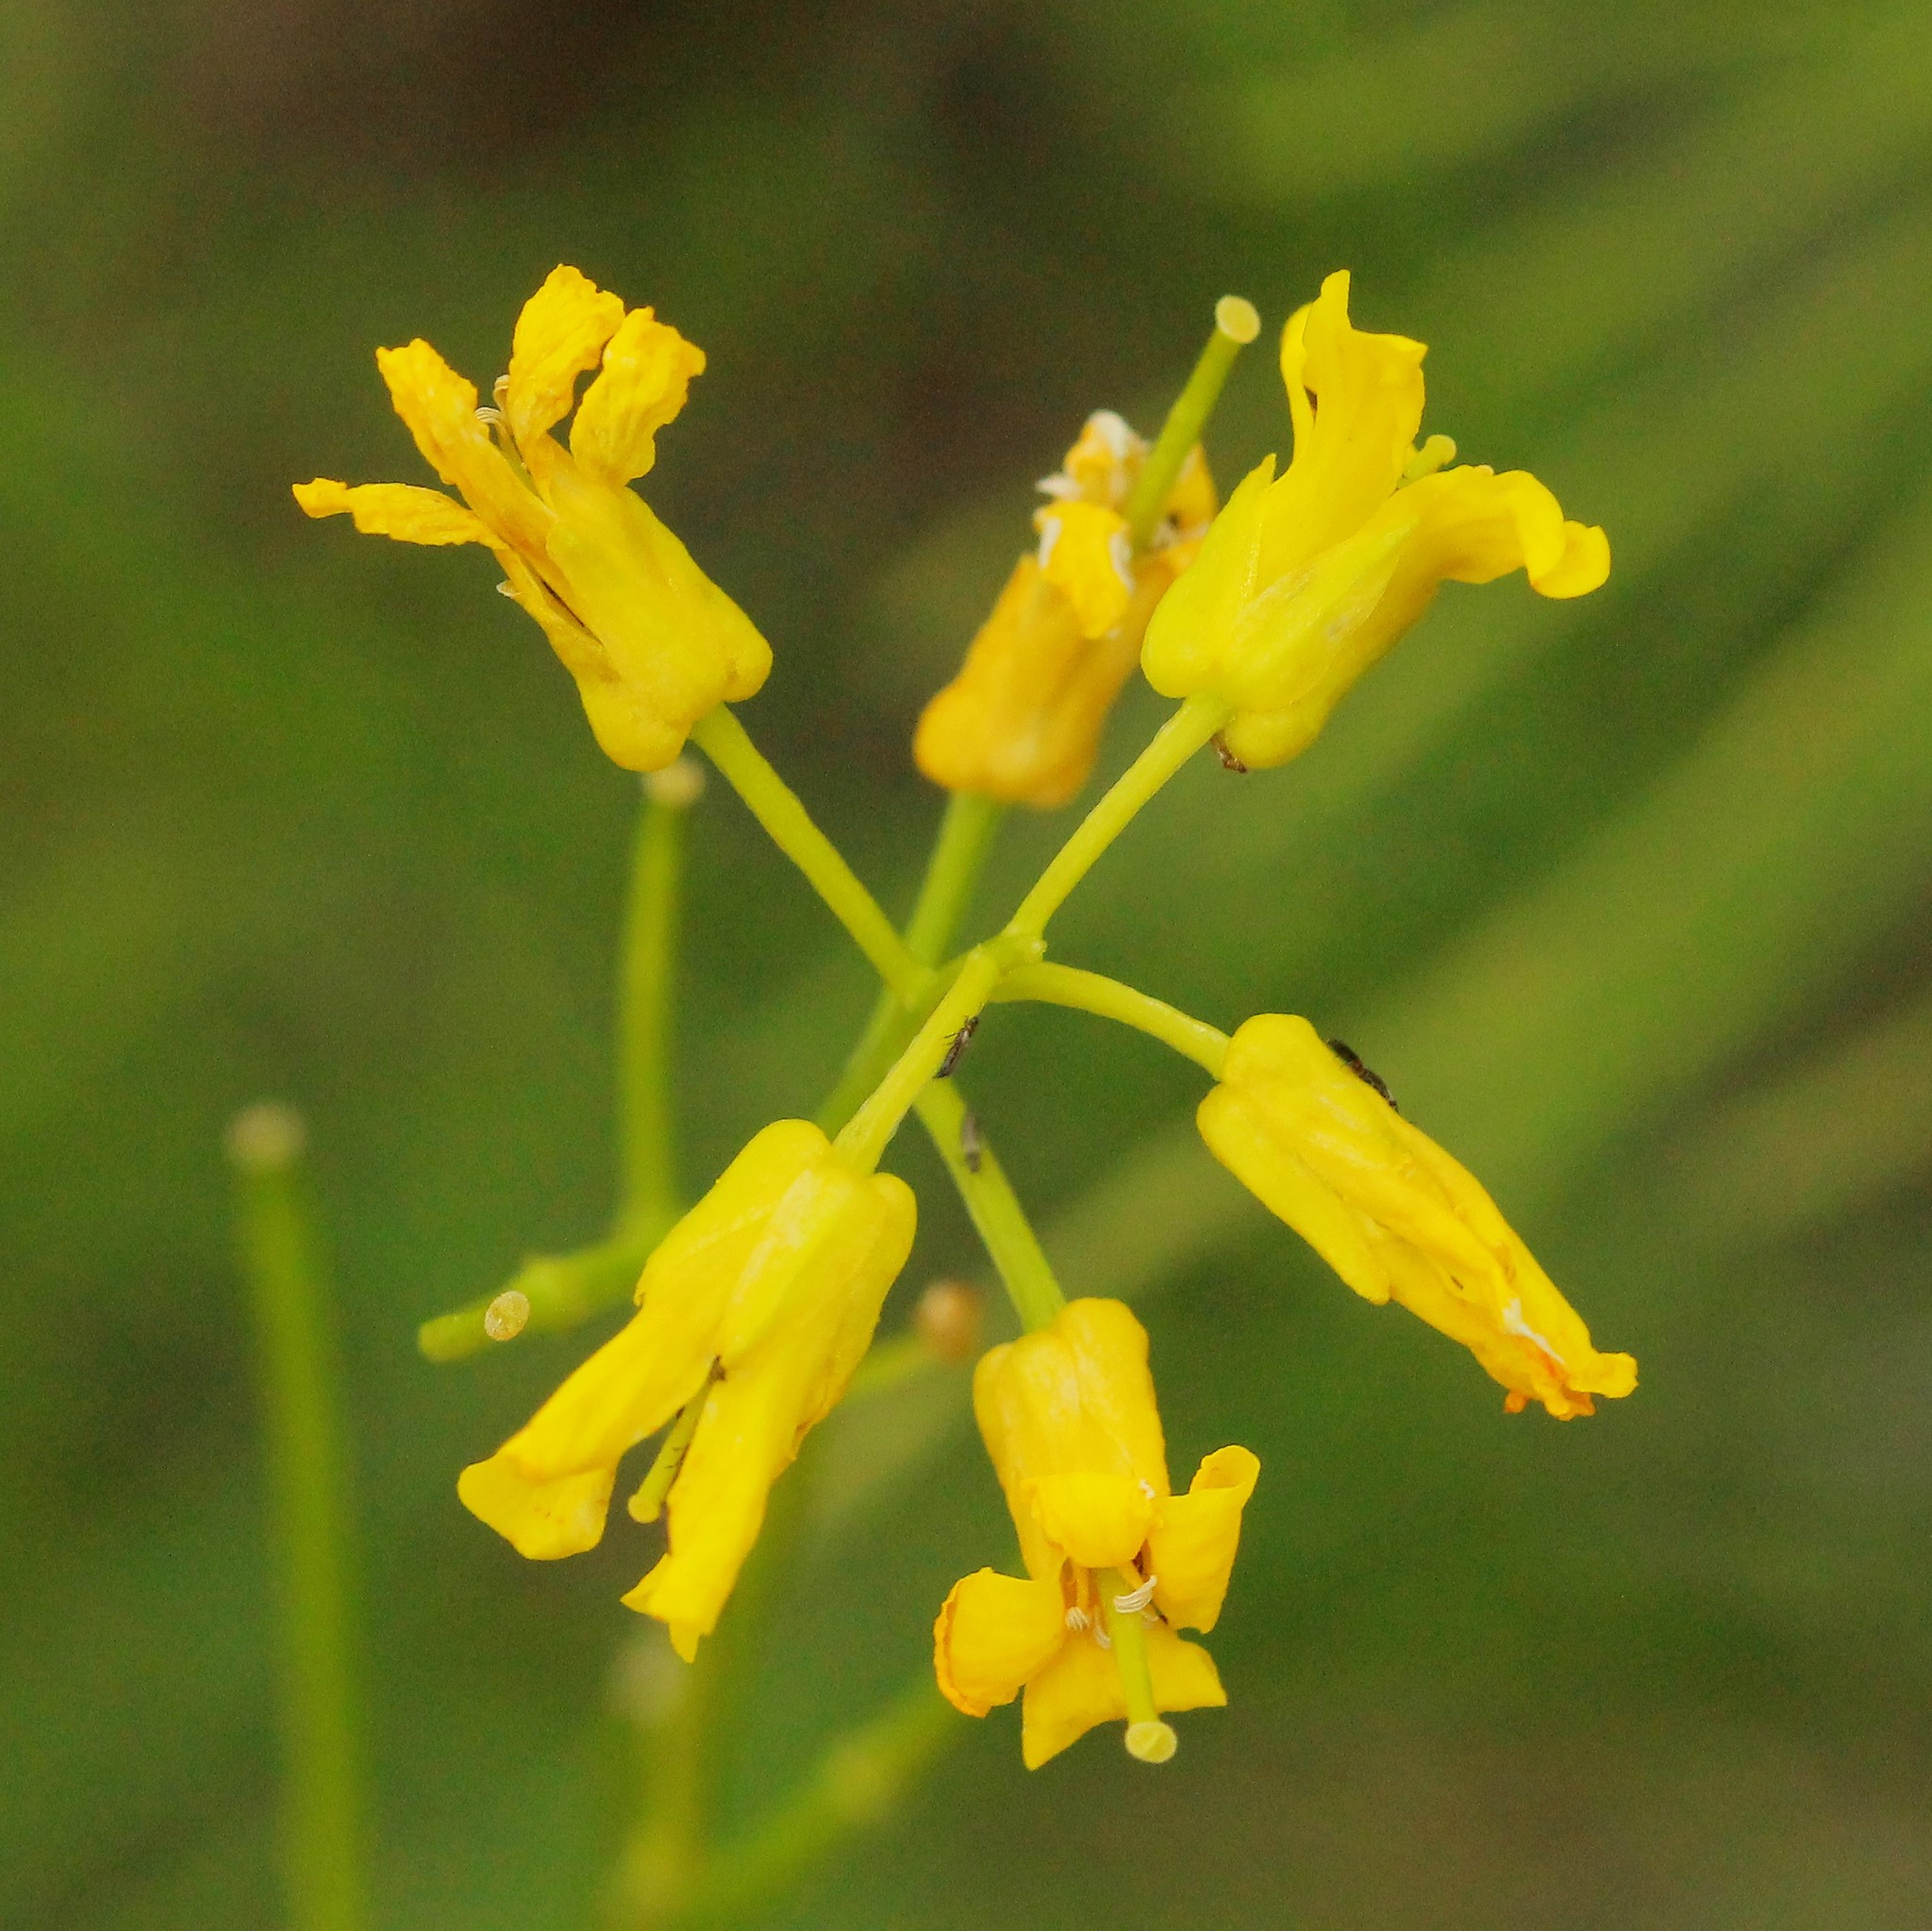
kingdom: Plantae
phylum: Tracheophyta
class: Magnoliopsida
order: Brassicales
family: Brassicaceae
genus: Barbarea
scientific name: Barbarea vulgaris
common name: Cressy-greens
